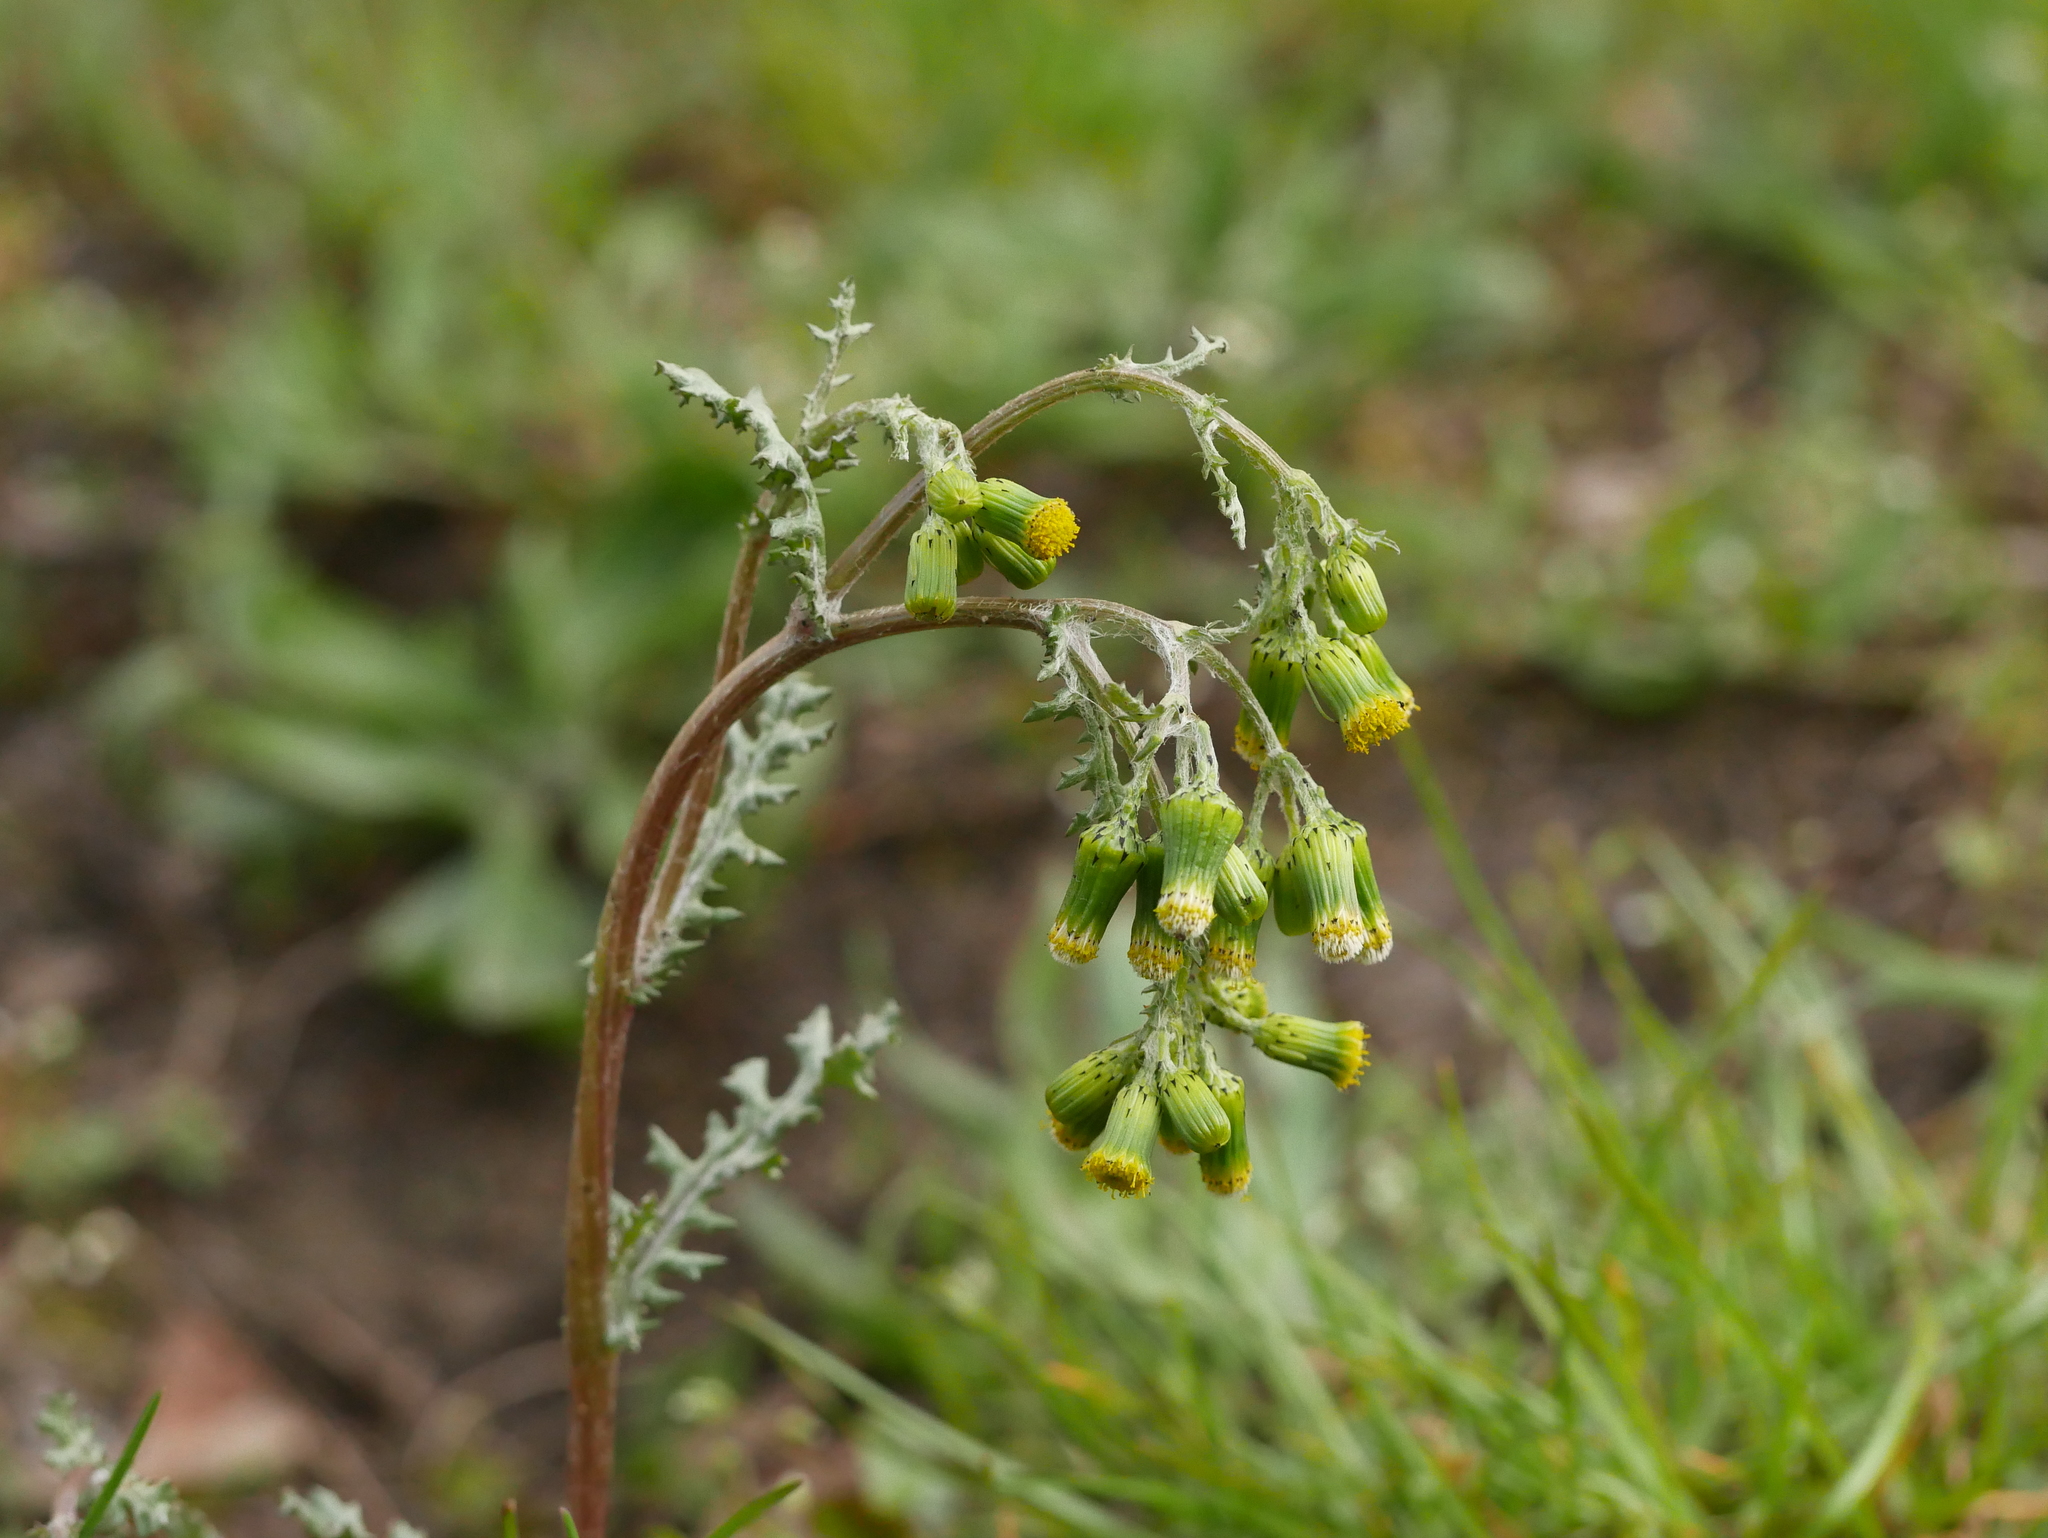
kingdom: Plantae
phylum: Tracheophyta
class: Magnoliopsida
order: Asterales
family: Asteraceae
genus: Senecio
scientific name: Senecio vulgaris
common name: Old-man-in-the-spring
